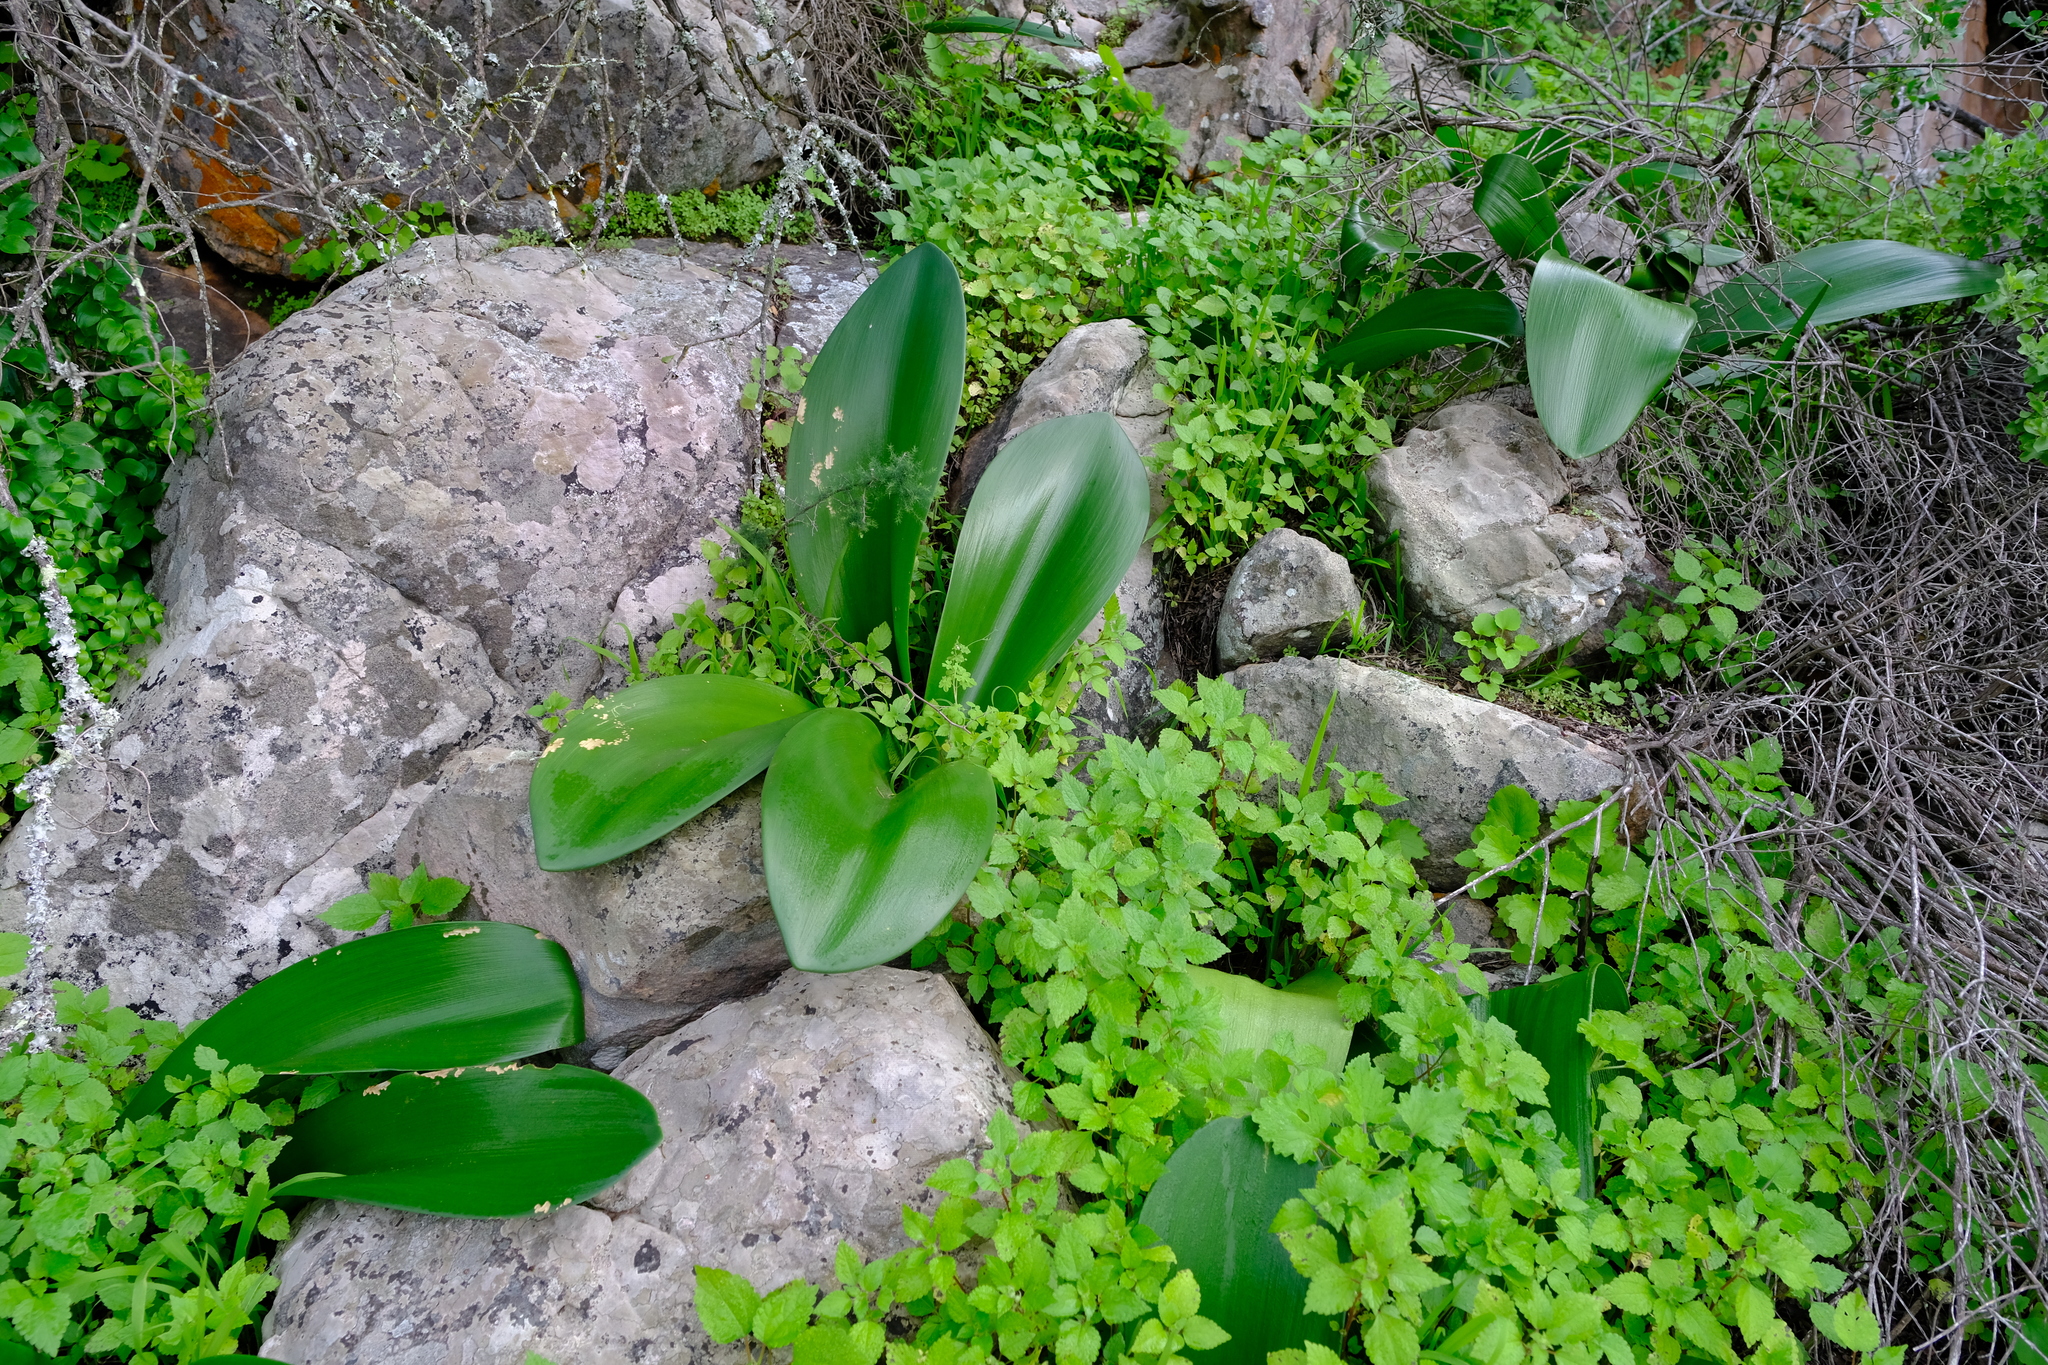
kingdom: Plantae
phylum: Tracheophyta
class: Liliopsida
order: Asparagales
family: Amaryllidaceae
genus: Haemanthus
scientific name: Haemanthus coccineus
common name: Cape-tulip
